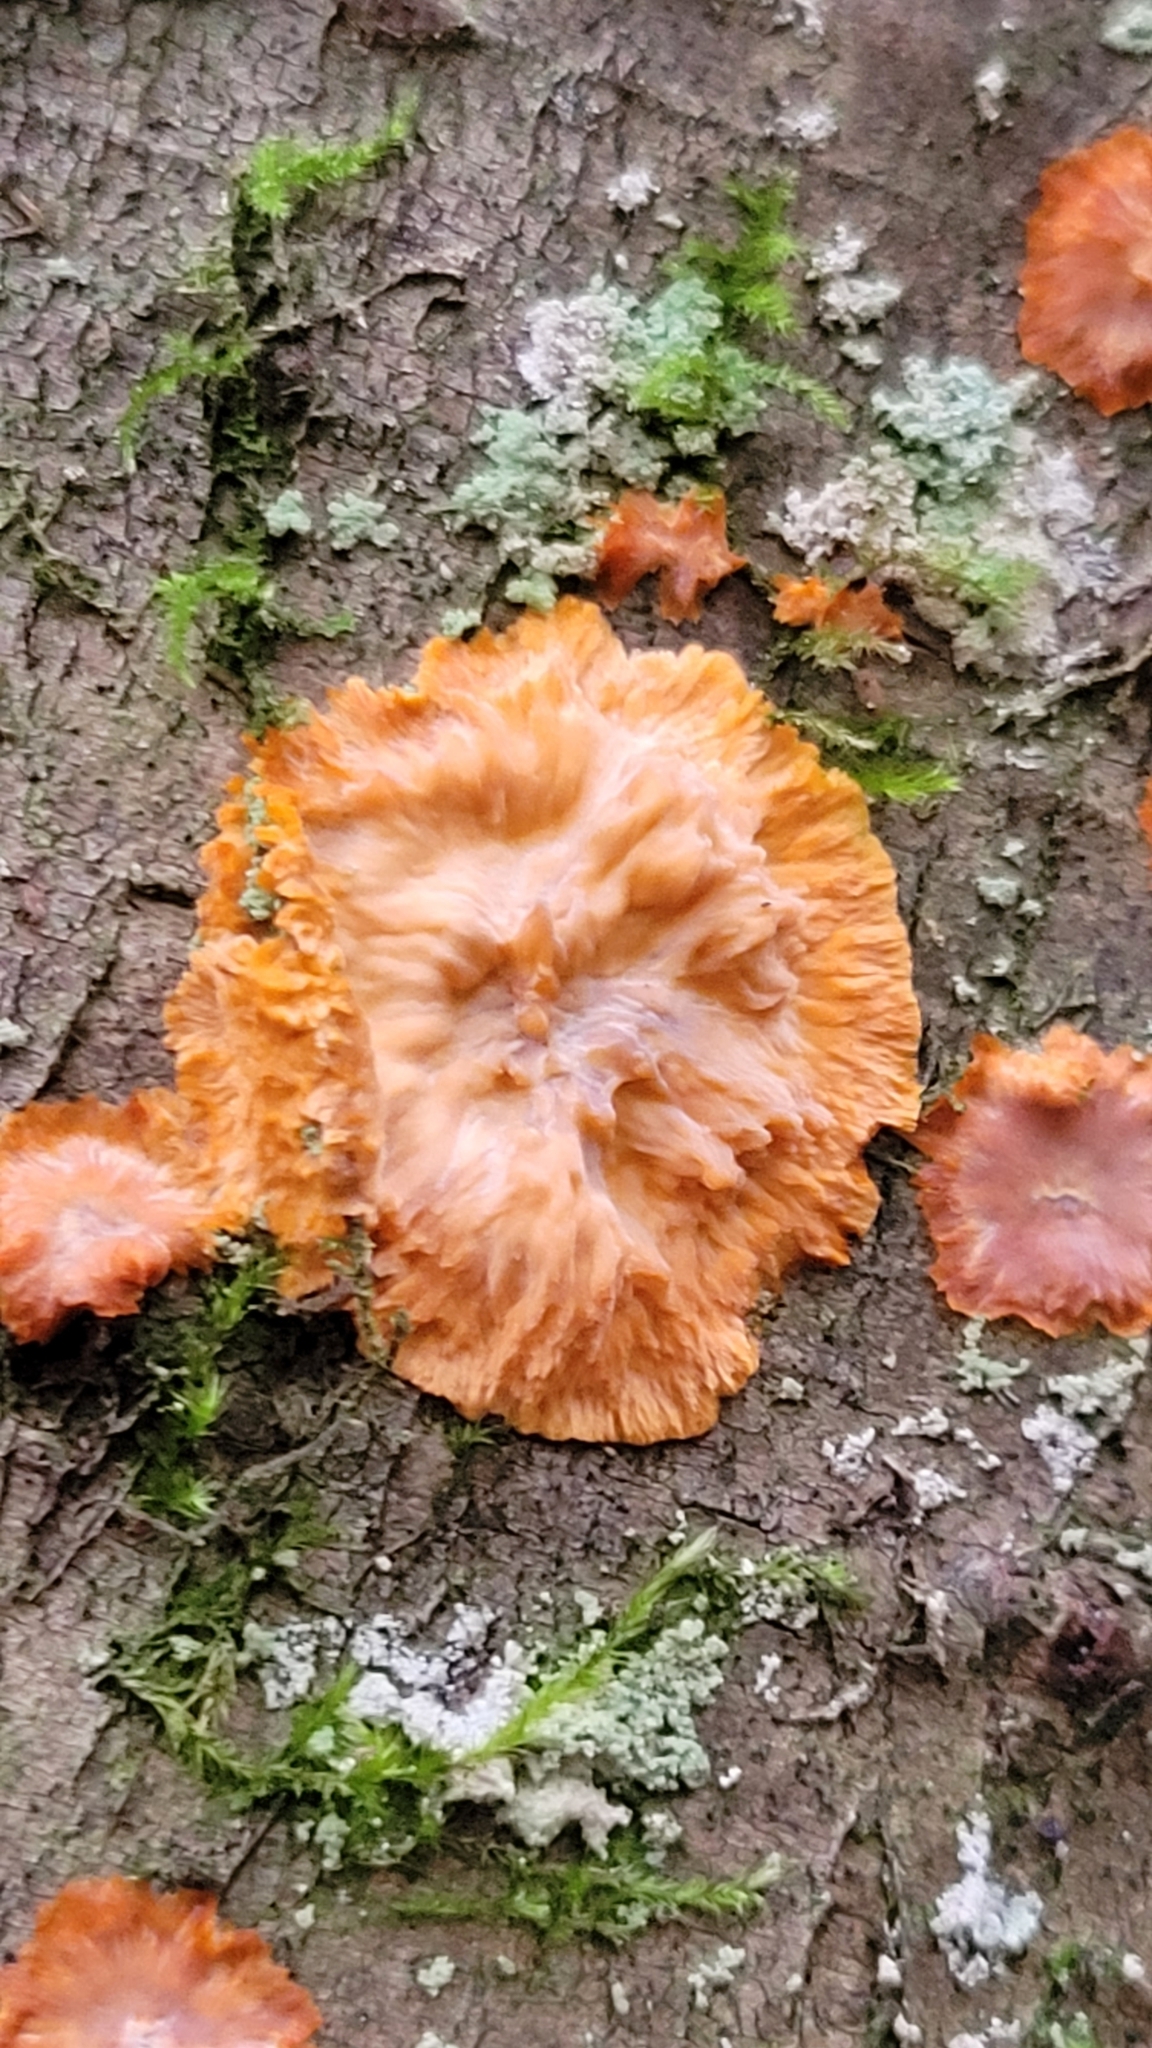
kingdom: Fungi
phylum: Basidiomycota
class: Agaricomycetes
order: Polyporales
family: Meruliaceae
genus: Phlebia
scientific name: Phlebia radiata
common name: Wrinkled crust
